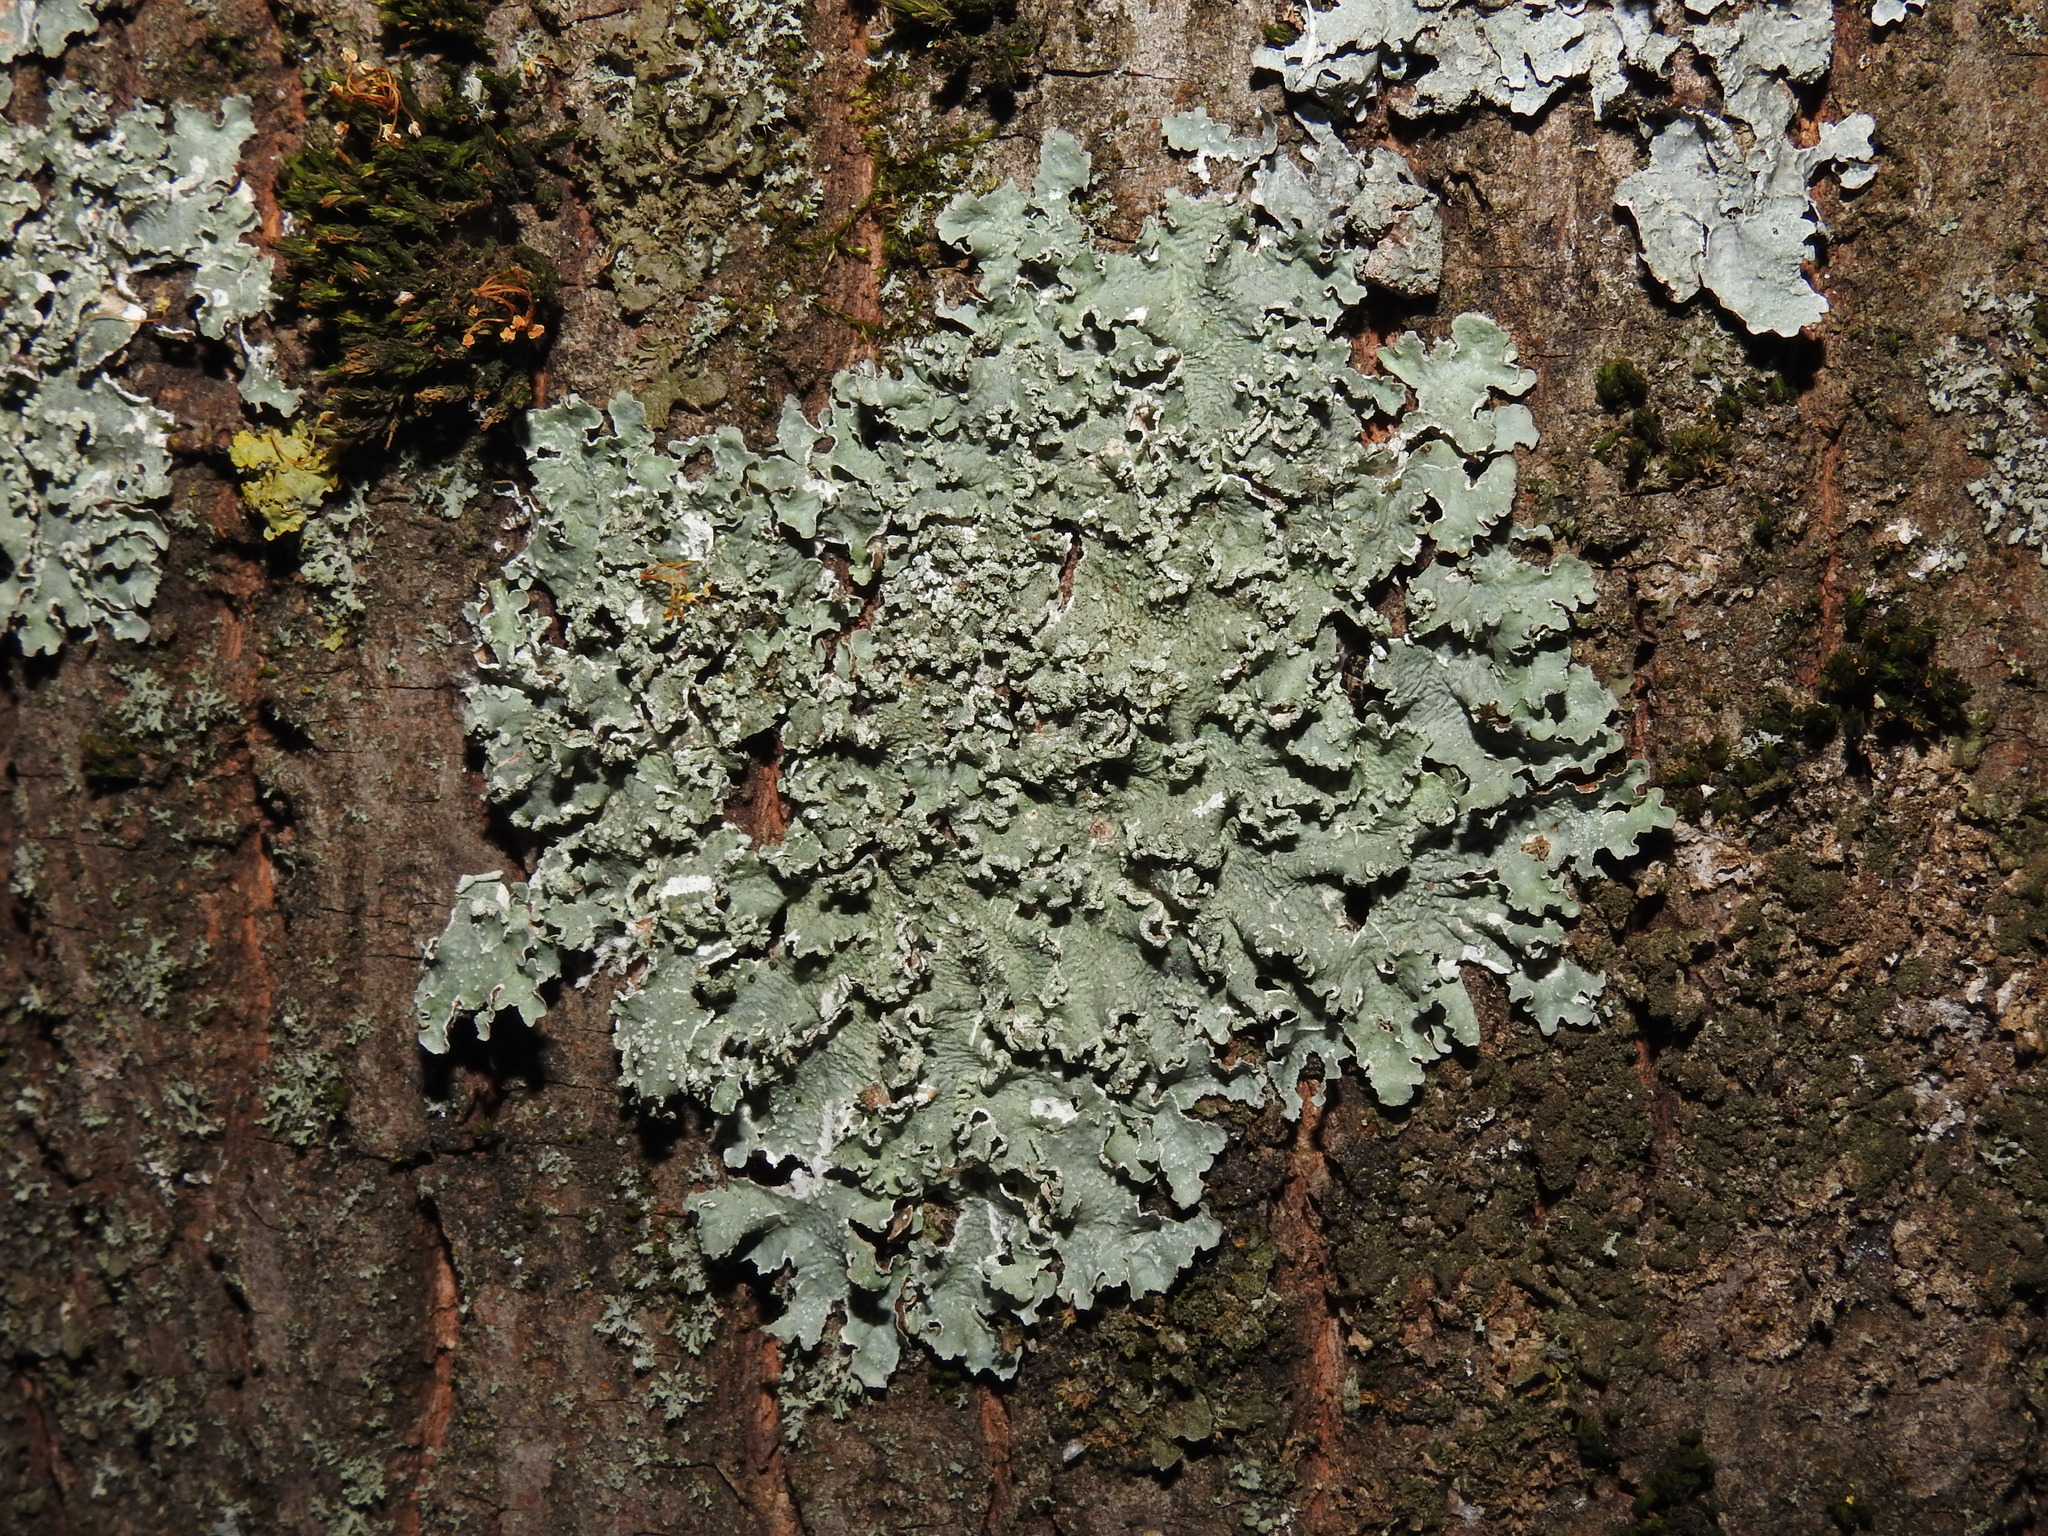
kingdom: Fungi
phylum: Ascomycota
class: Lecanoromycetes
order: Lecanorales
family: Parmeliaceae
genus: Punctelia
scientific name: Punctelia jeckeri
